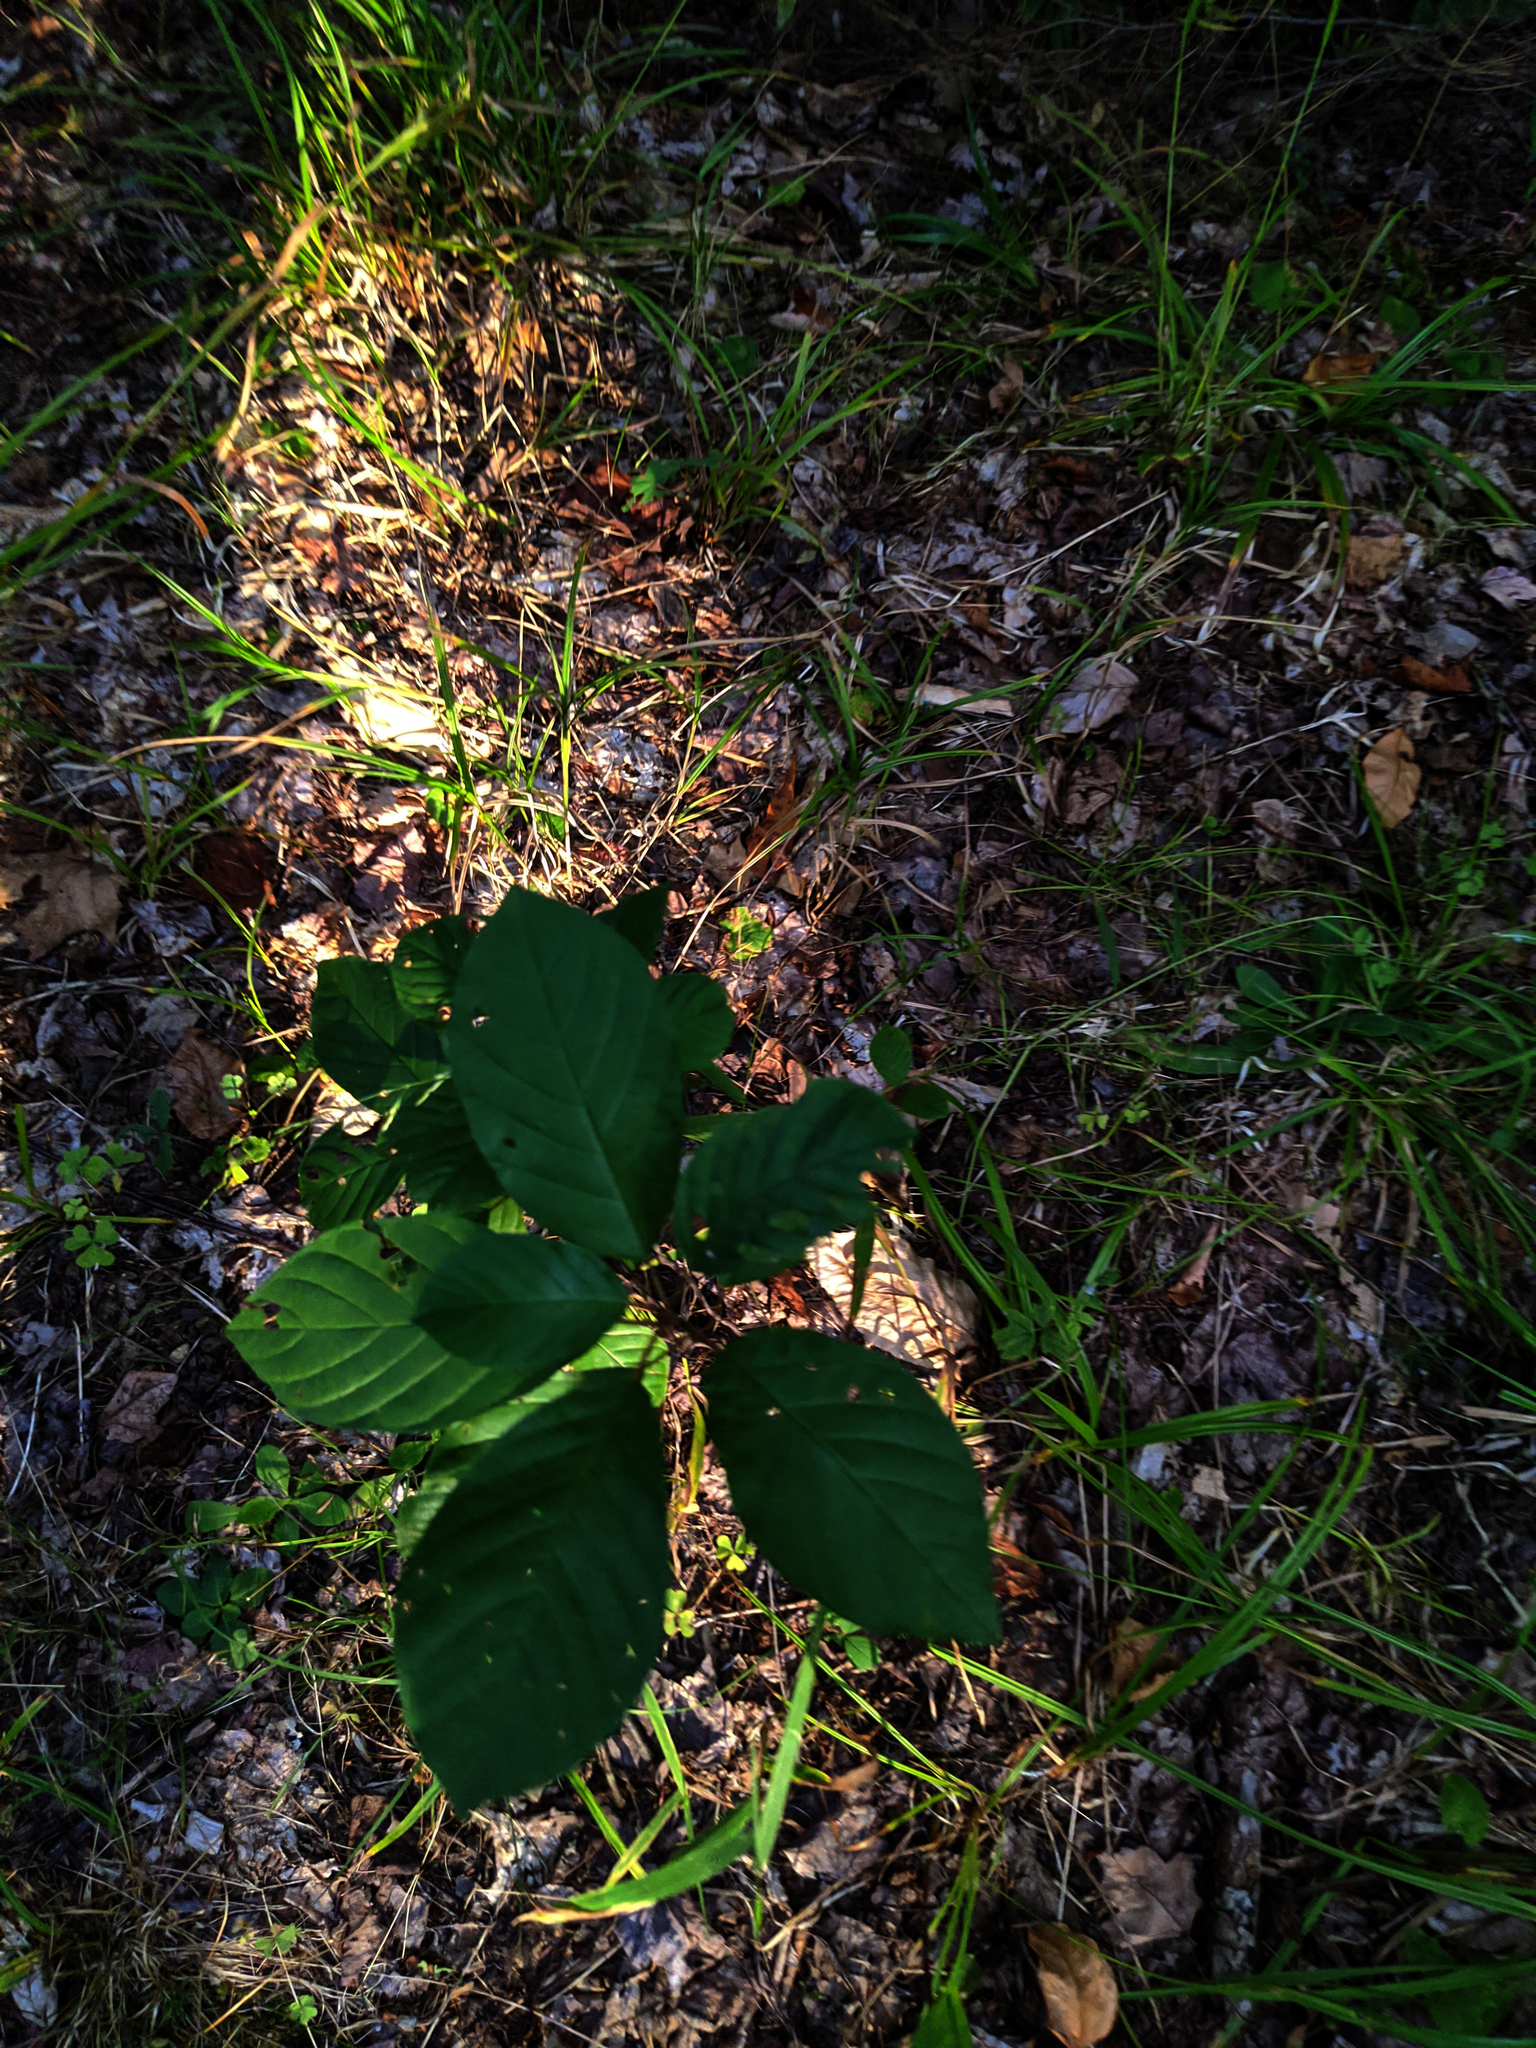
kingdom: Plantae
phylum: Tracheophyta
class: Magnoliopsida
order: Rosales
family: Rhamnaceae
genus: Frangula
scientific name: Frangula alnus
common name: Alder buckthorn
